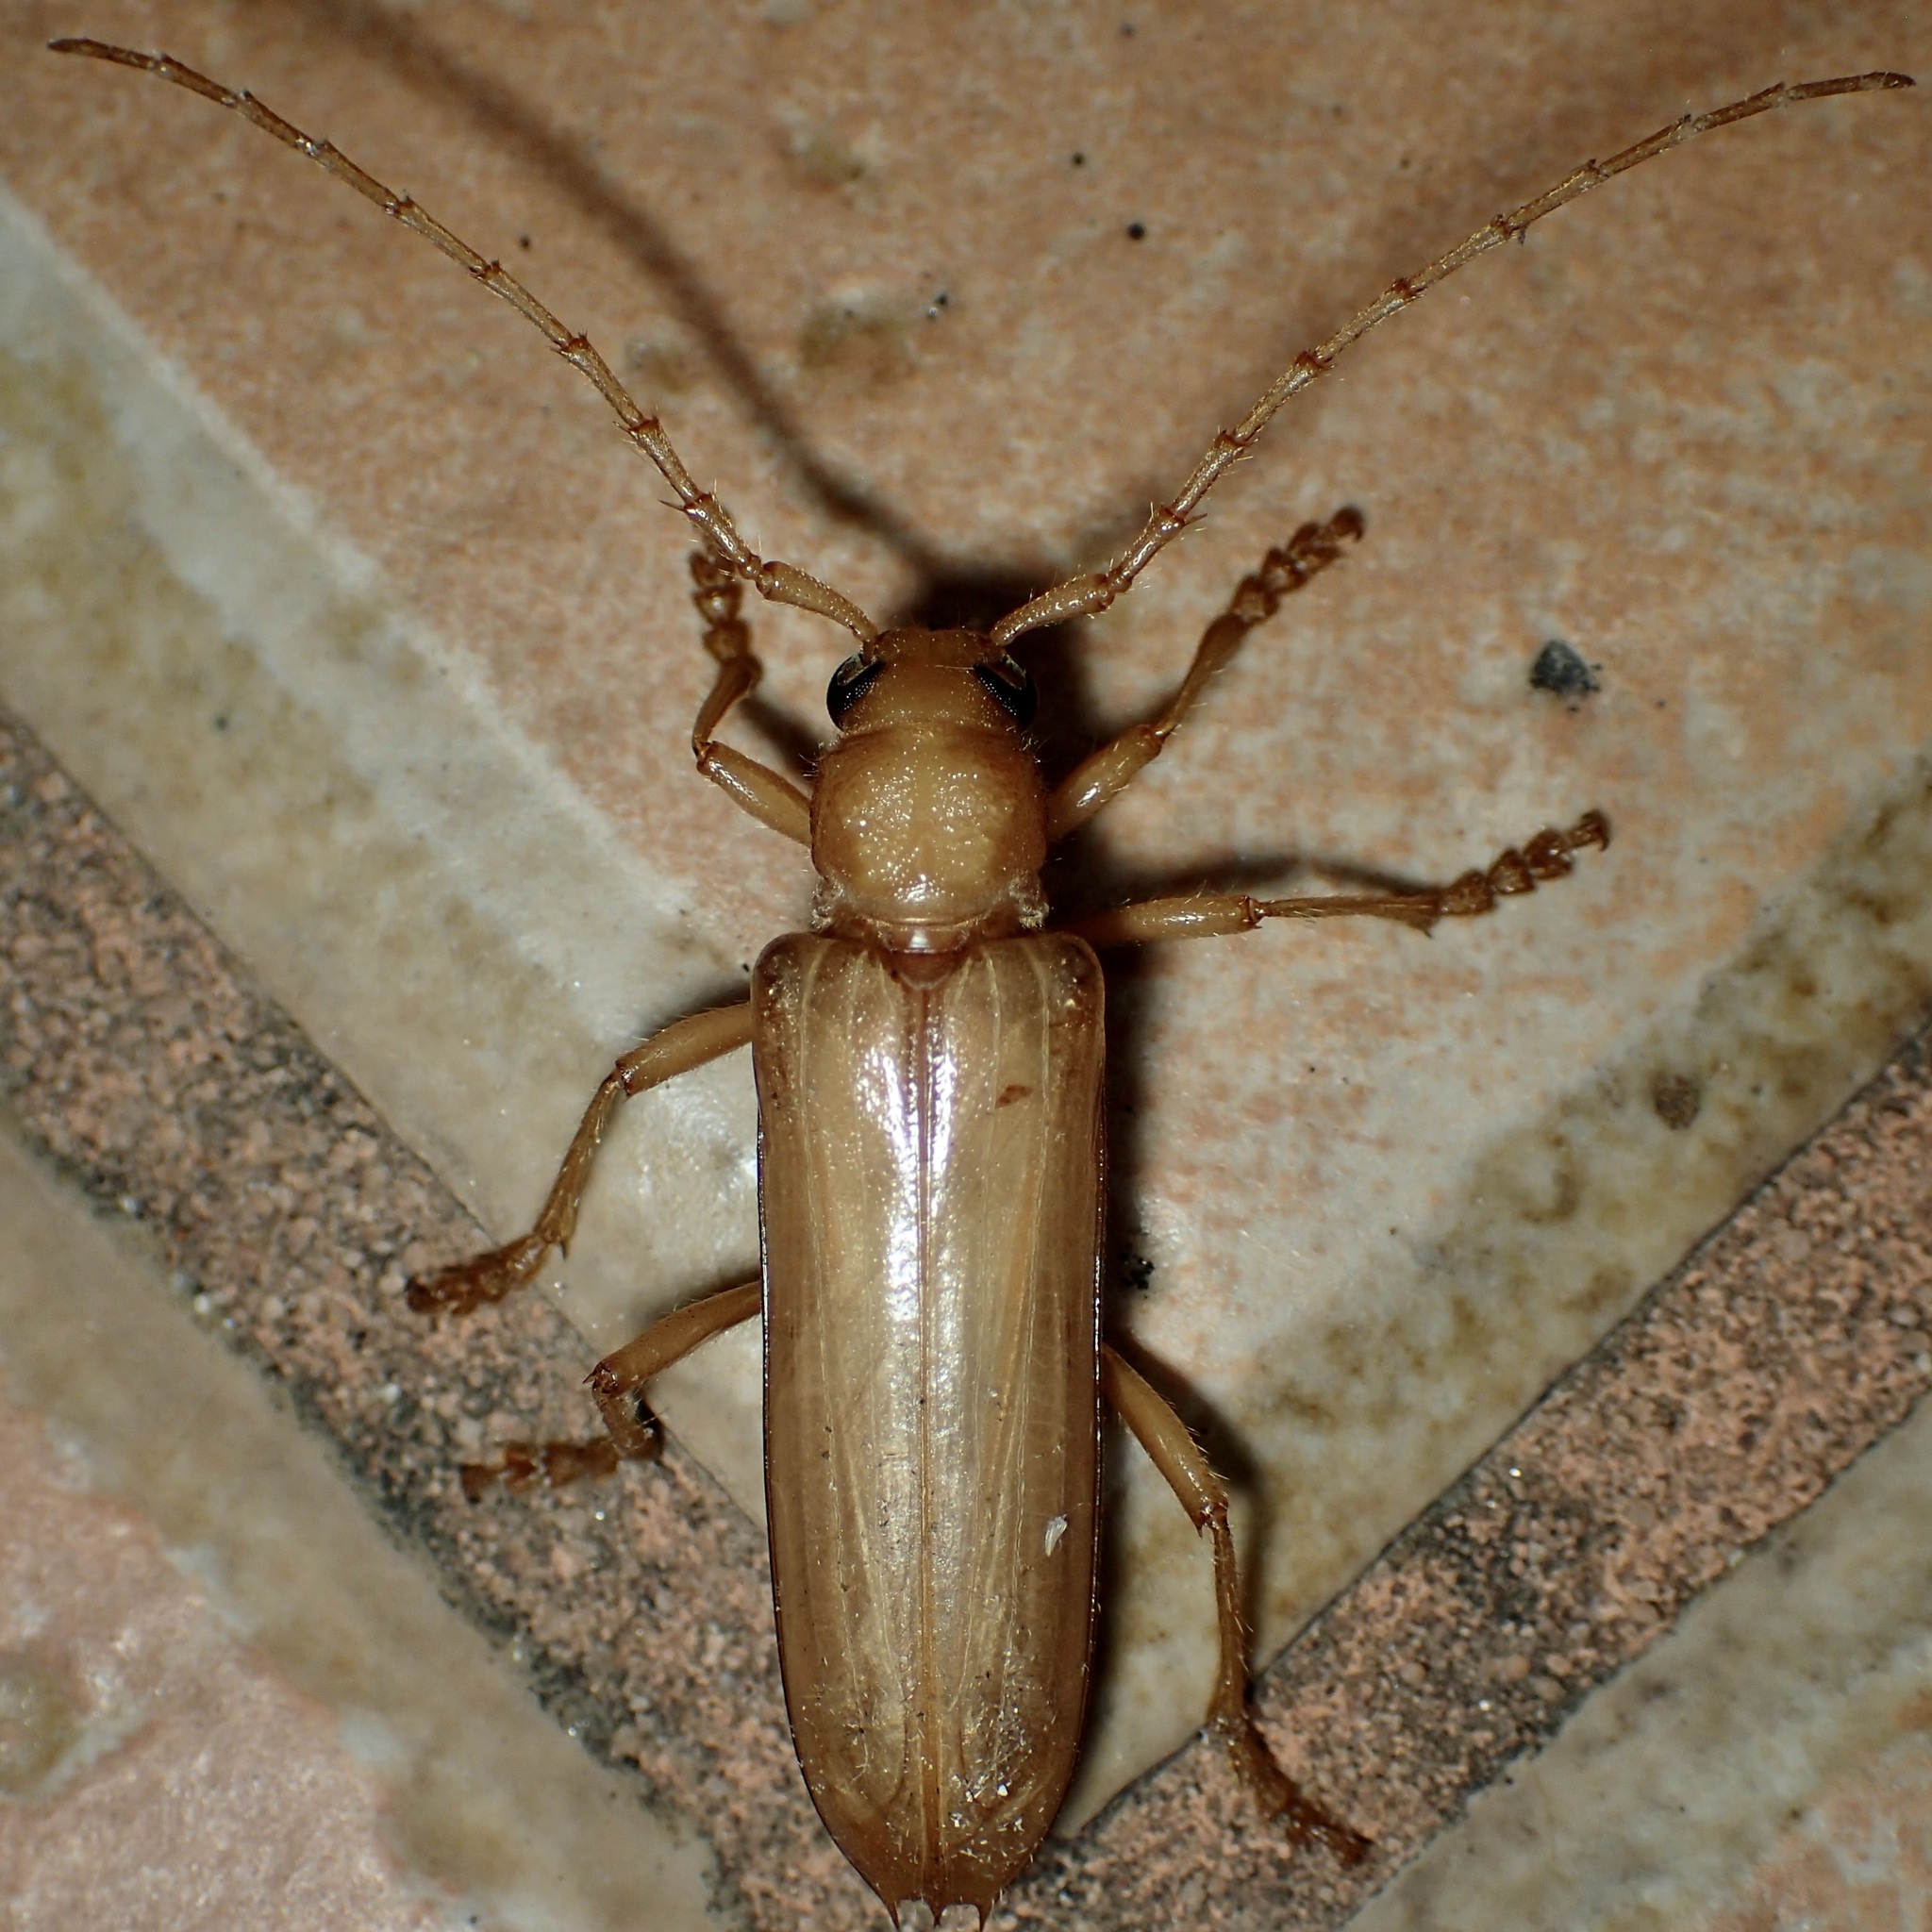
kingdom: Animalia
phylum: Arthropoda
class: Insecta
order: Coleoptera
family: Cerambycidae
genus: Atylostagma
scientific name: Atylostagma polita
